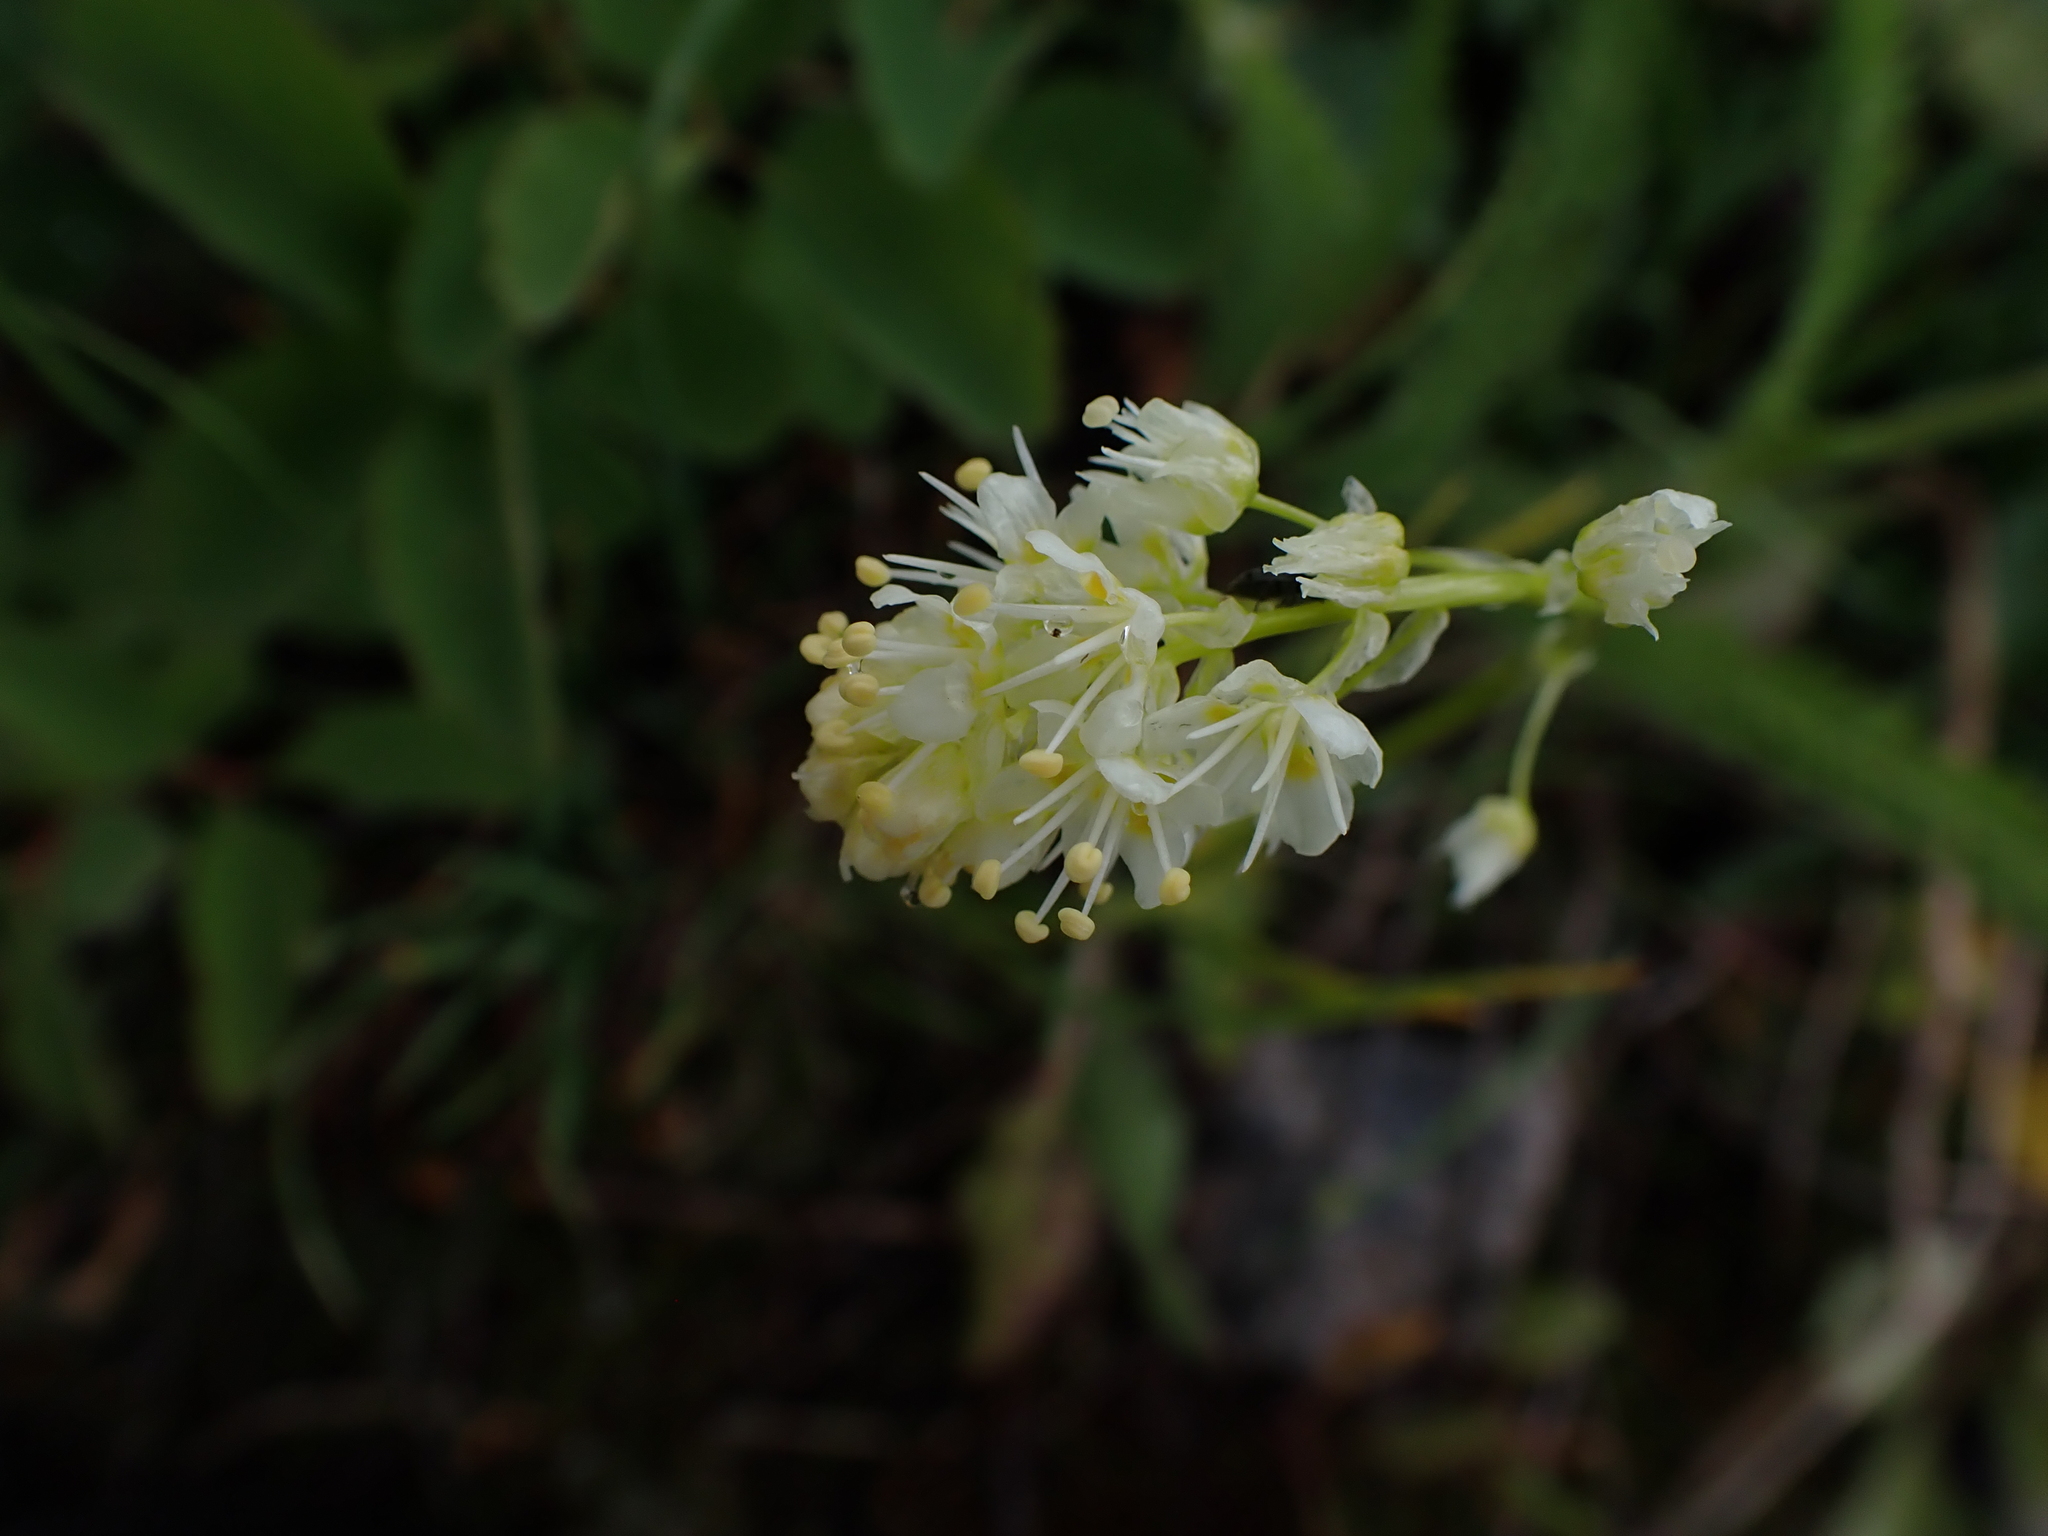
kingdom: Plantae
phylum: Tracheophyta
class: Liliopsida
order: Liliales
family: Melanthiaceae
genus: Toxicoscordion
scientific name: Toxicoscordion venenosum
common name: Meadow death camas
